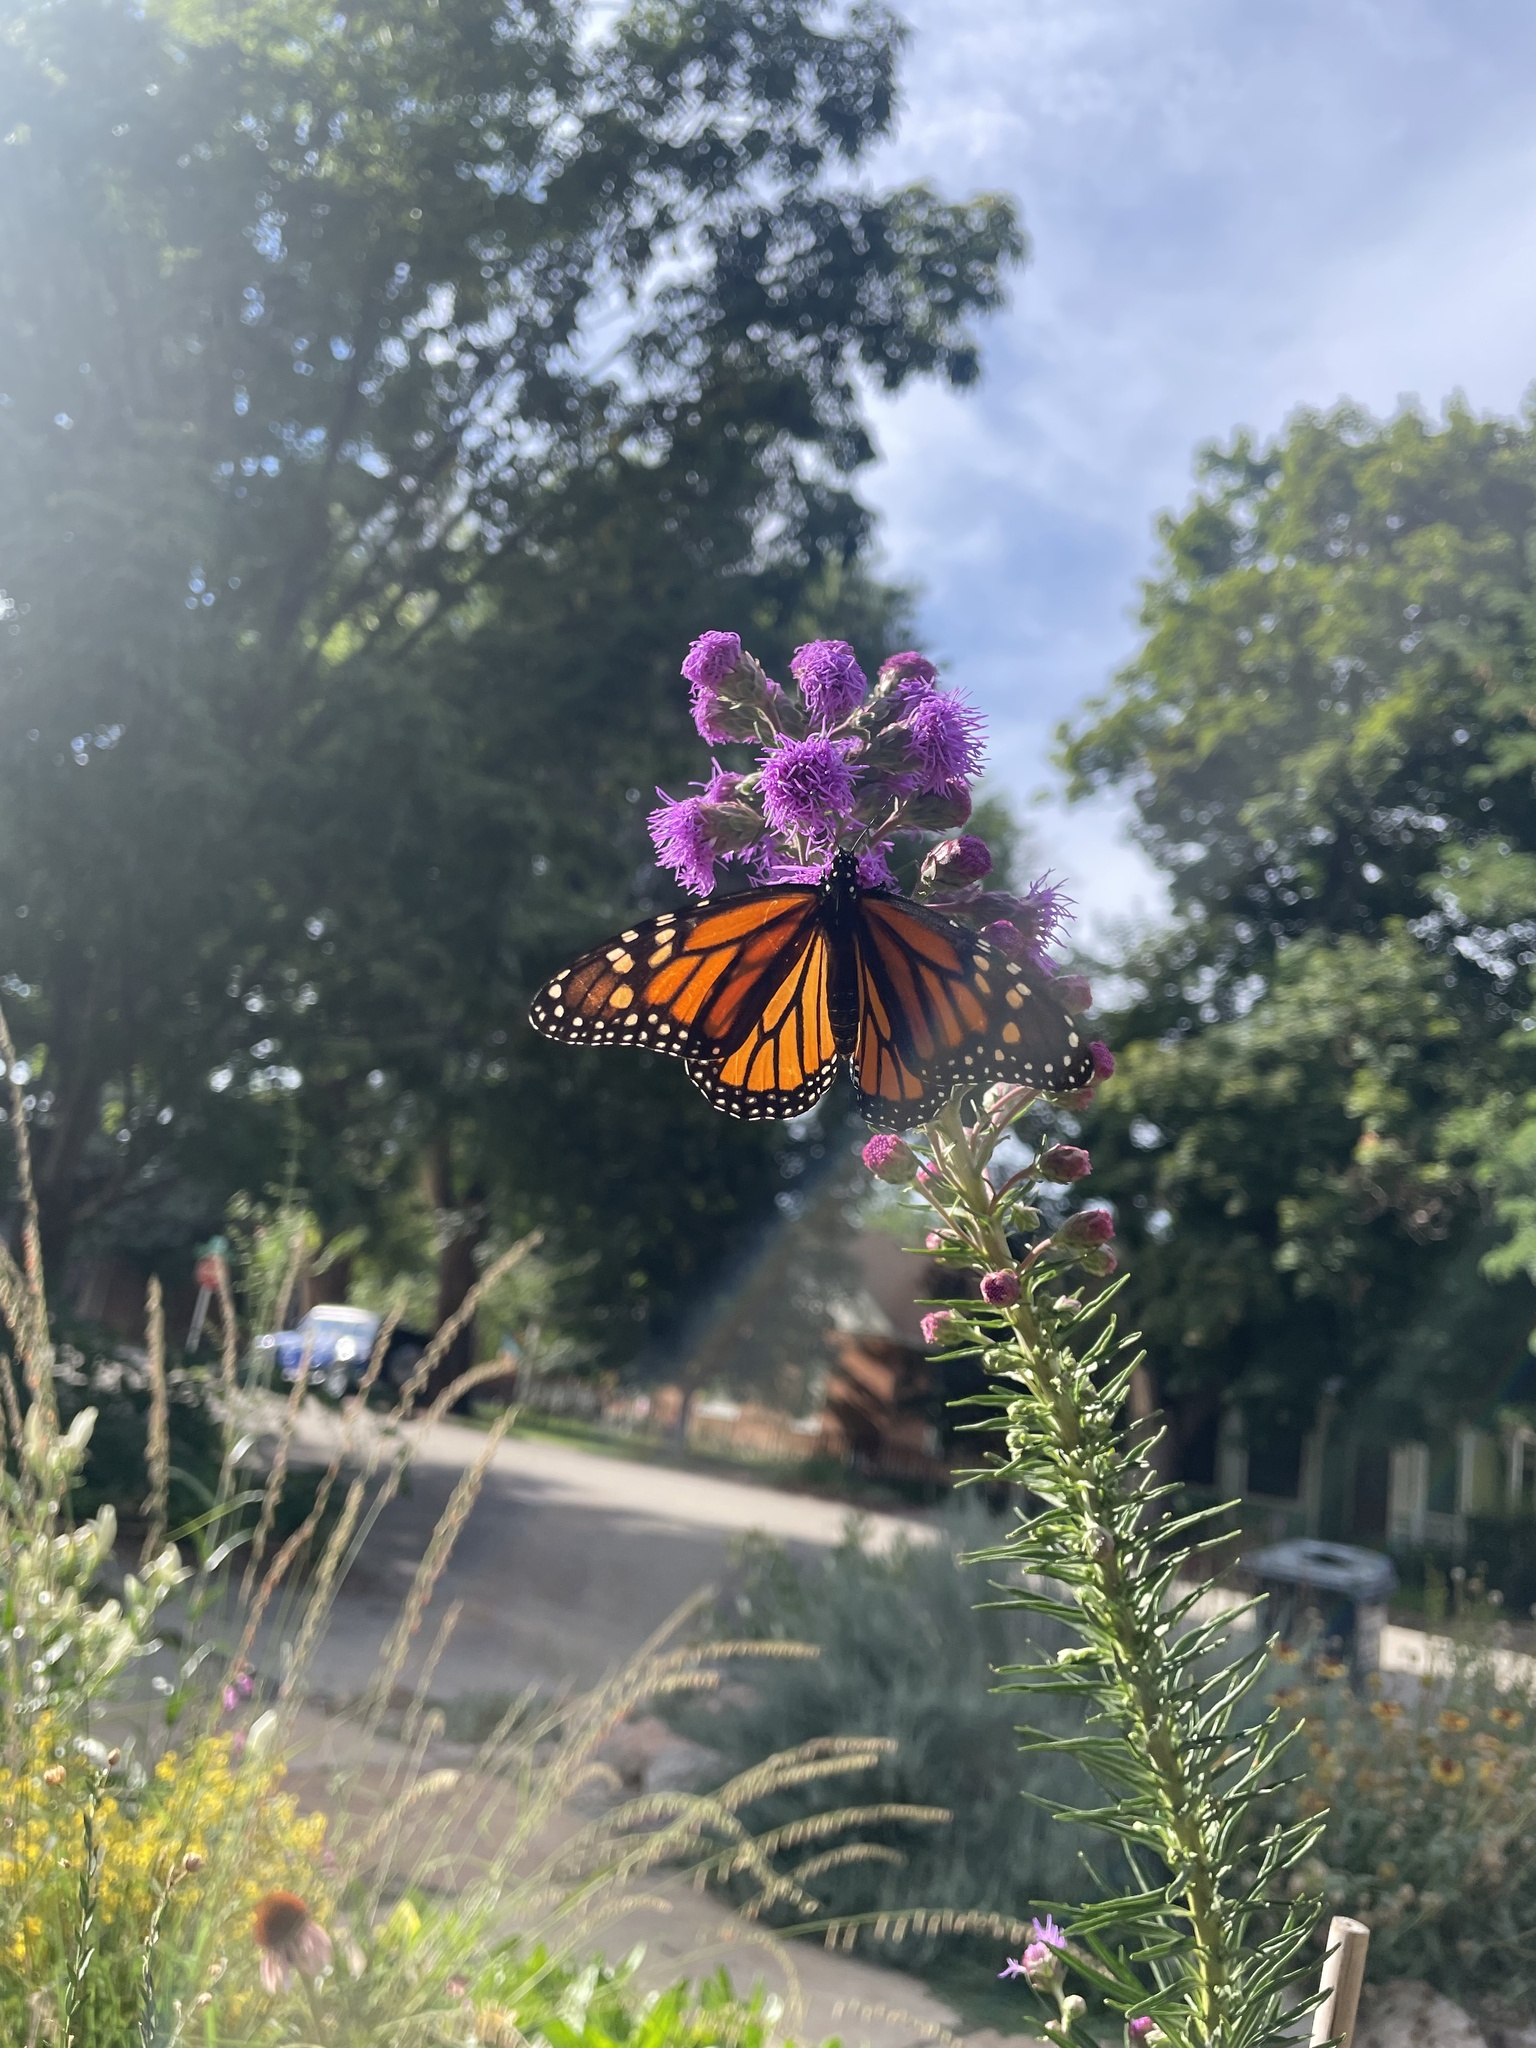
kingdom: Animalia
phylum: Arthropoda
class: Insecta
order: Lepidoptera
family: Nymphalidae
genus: Danaus
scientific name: Danaus plexippus
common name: Monarch
